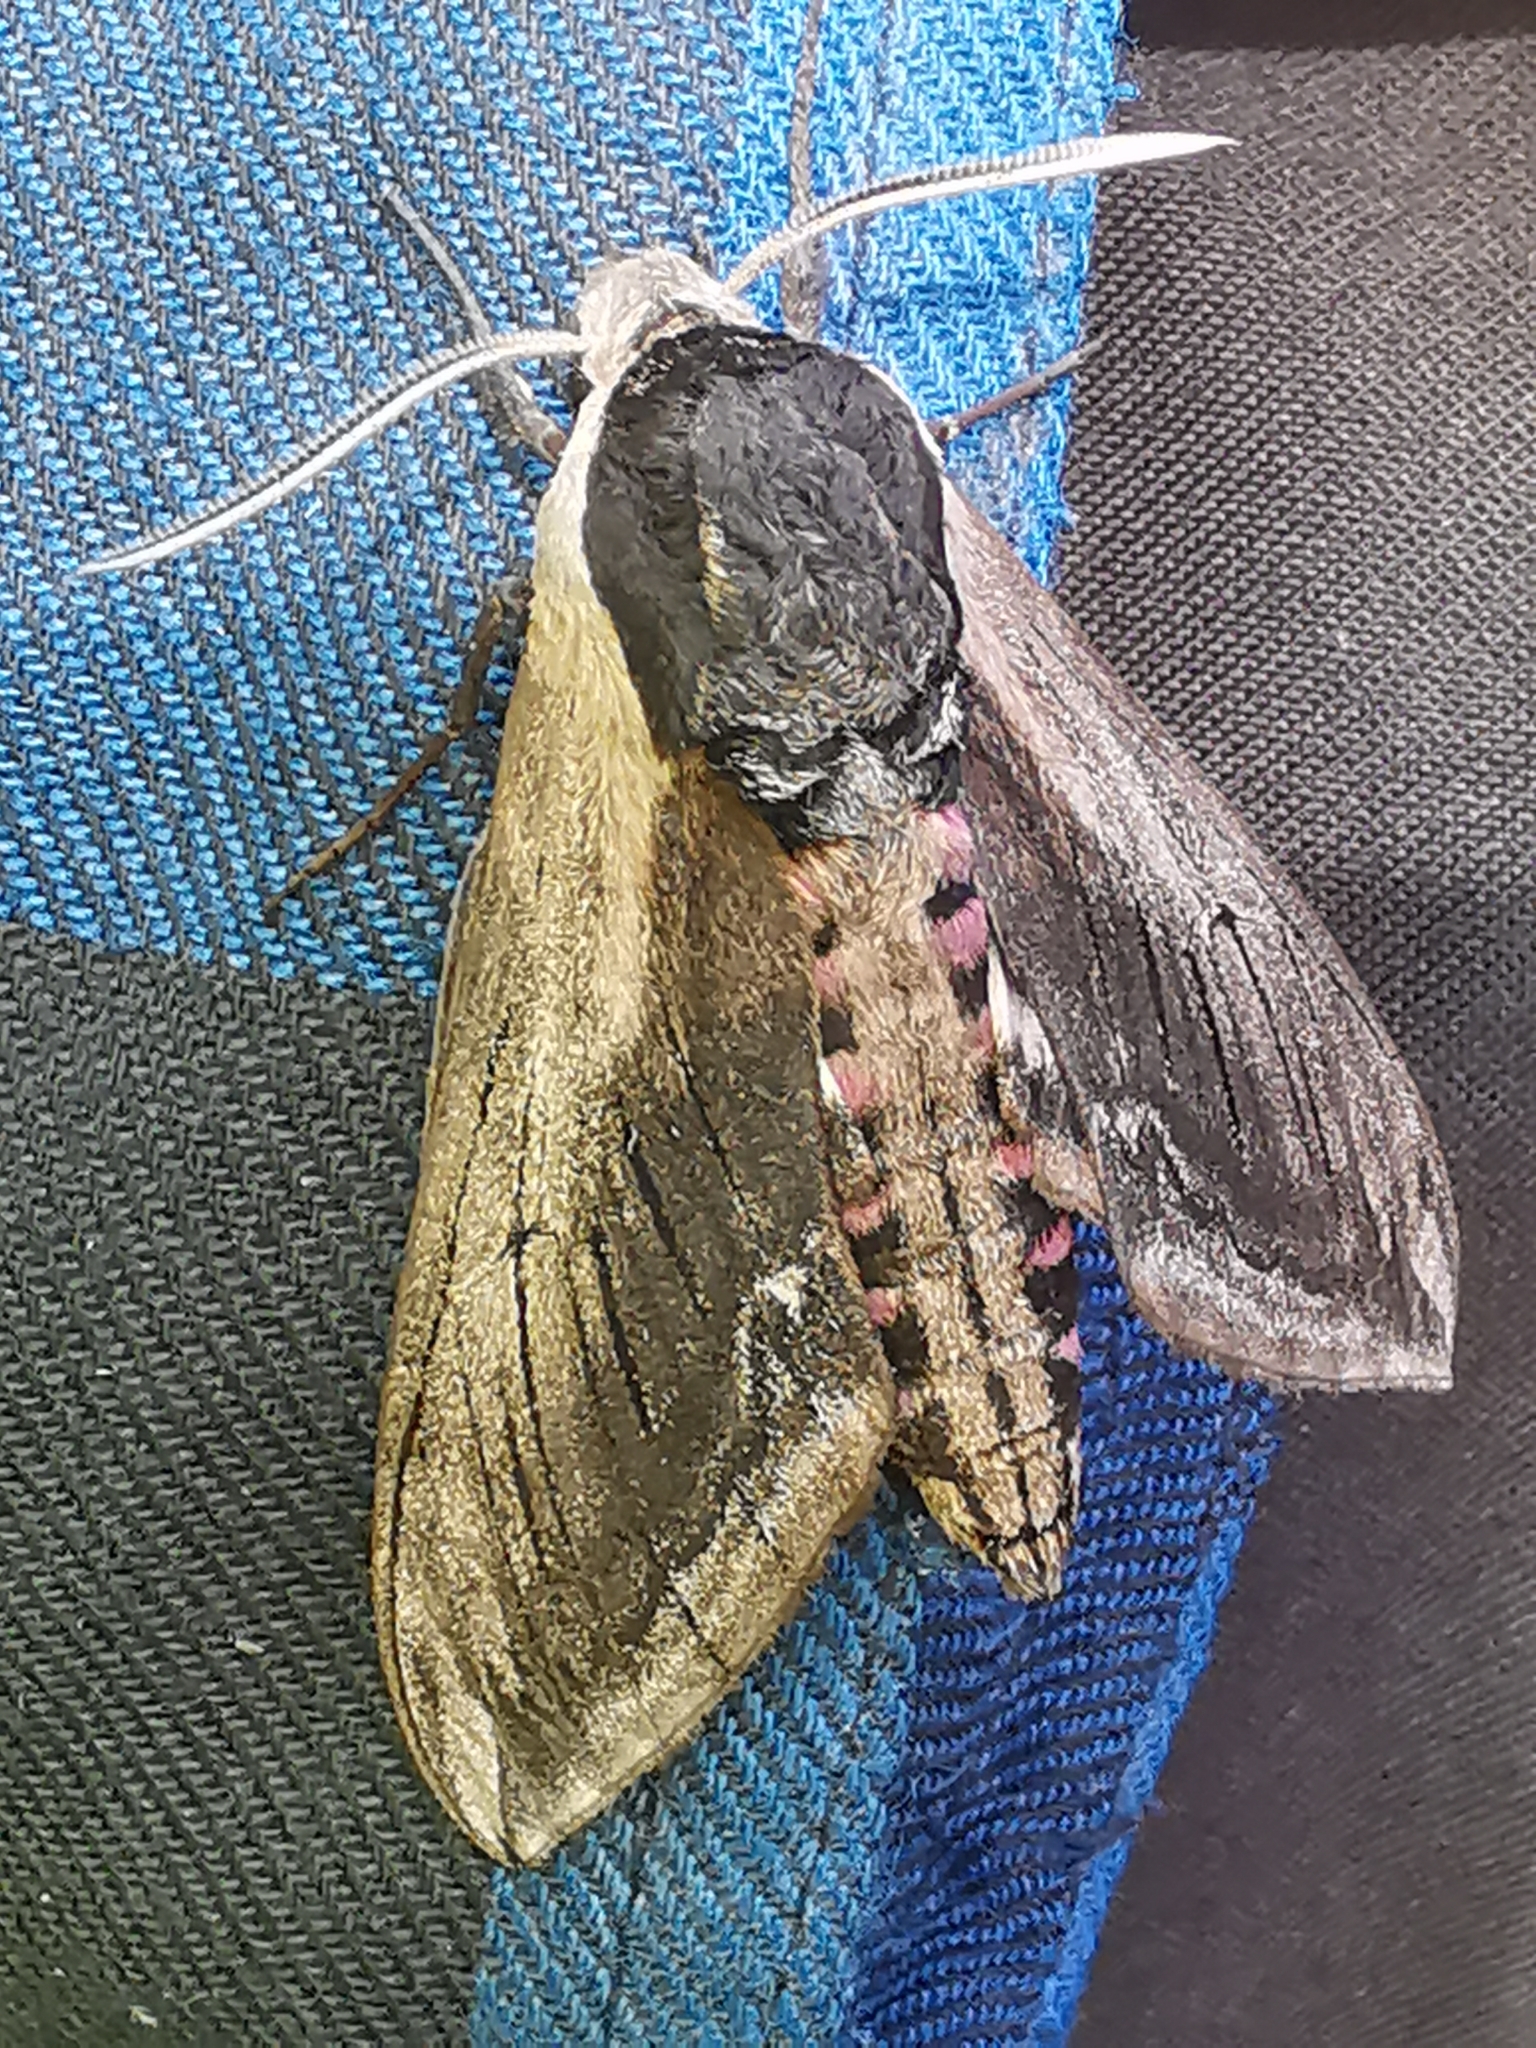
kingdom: Animalia
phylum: Arthropoda
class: Insecta
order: Lepidoptera
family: Sphingidae
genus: Sphinx
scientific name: Sphinx ligustri
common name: Privet hawk-moth
